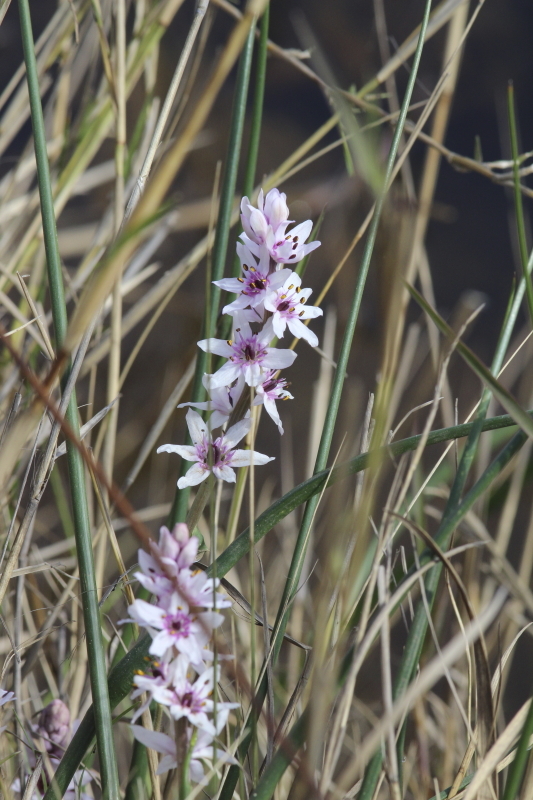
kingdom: Plantae
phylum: Tracheophyta
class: Liliopsida
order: Liliales
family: Colchicaceae
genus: Wurmbea
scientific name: Wurmbea stricta
